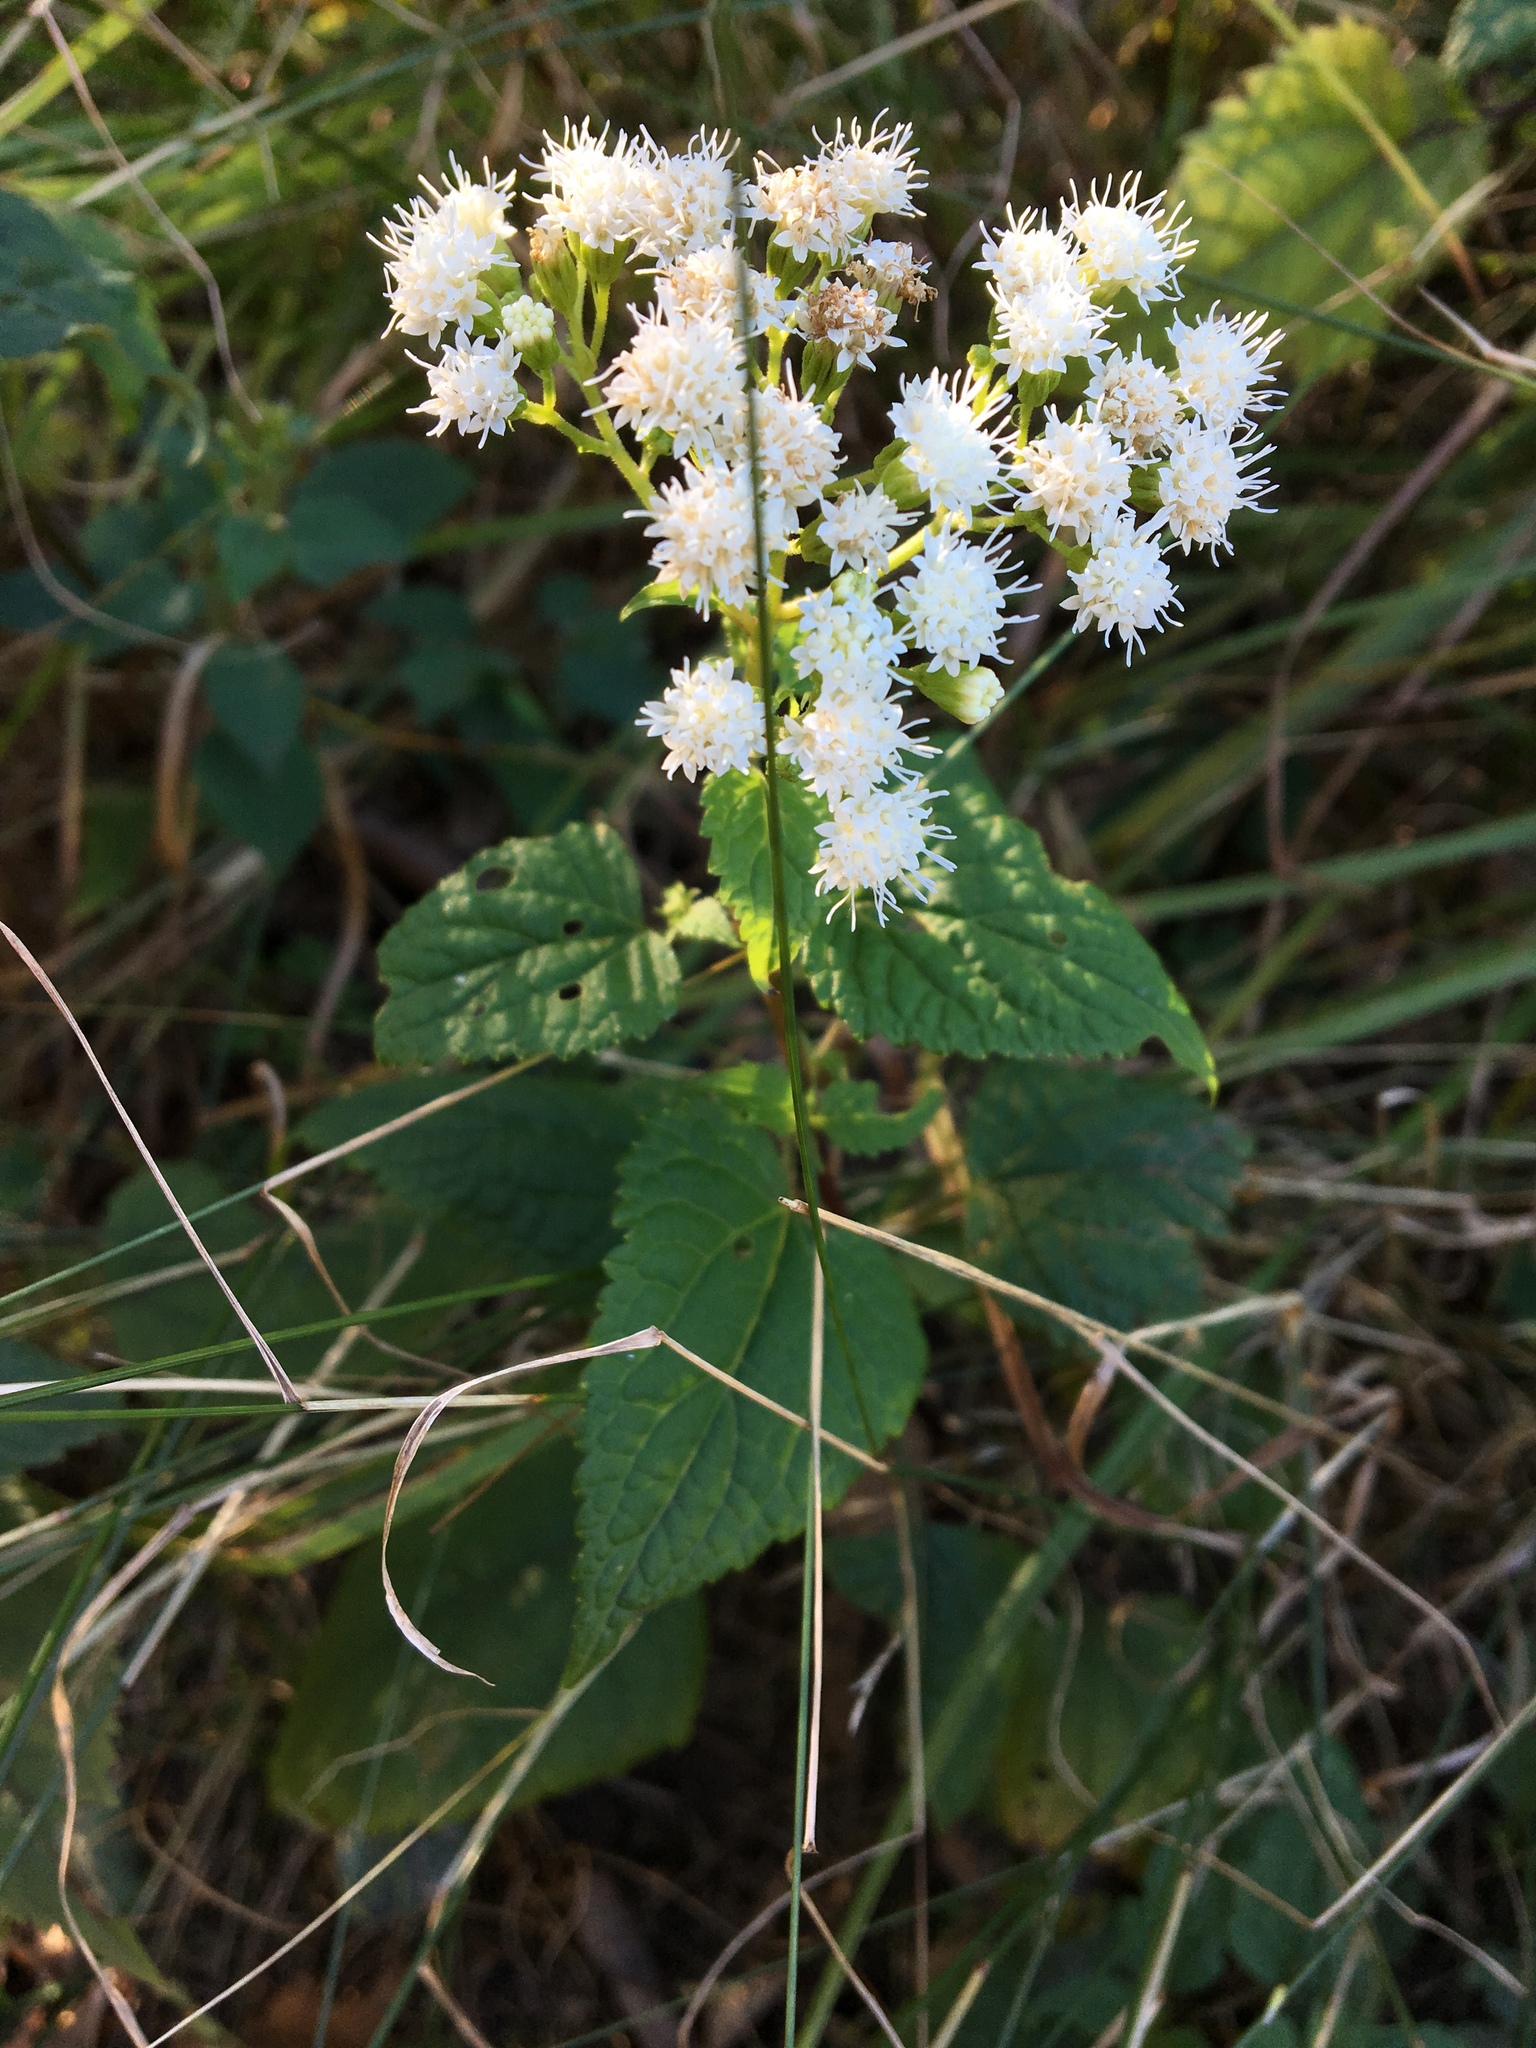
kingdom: Plantae
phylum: Tracheophyta
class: Magnoliopsida
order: Asterales
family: Asteraceae
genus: Ageratina
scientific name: Ageratina altissima
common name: White snakeroot
